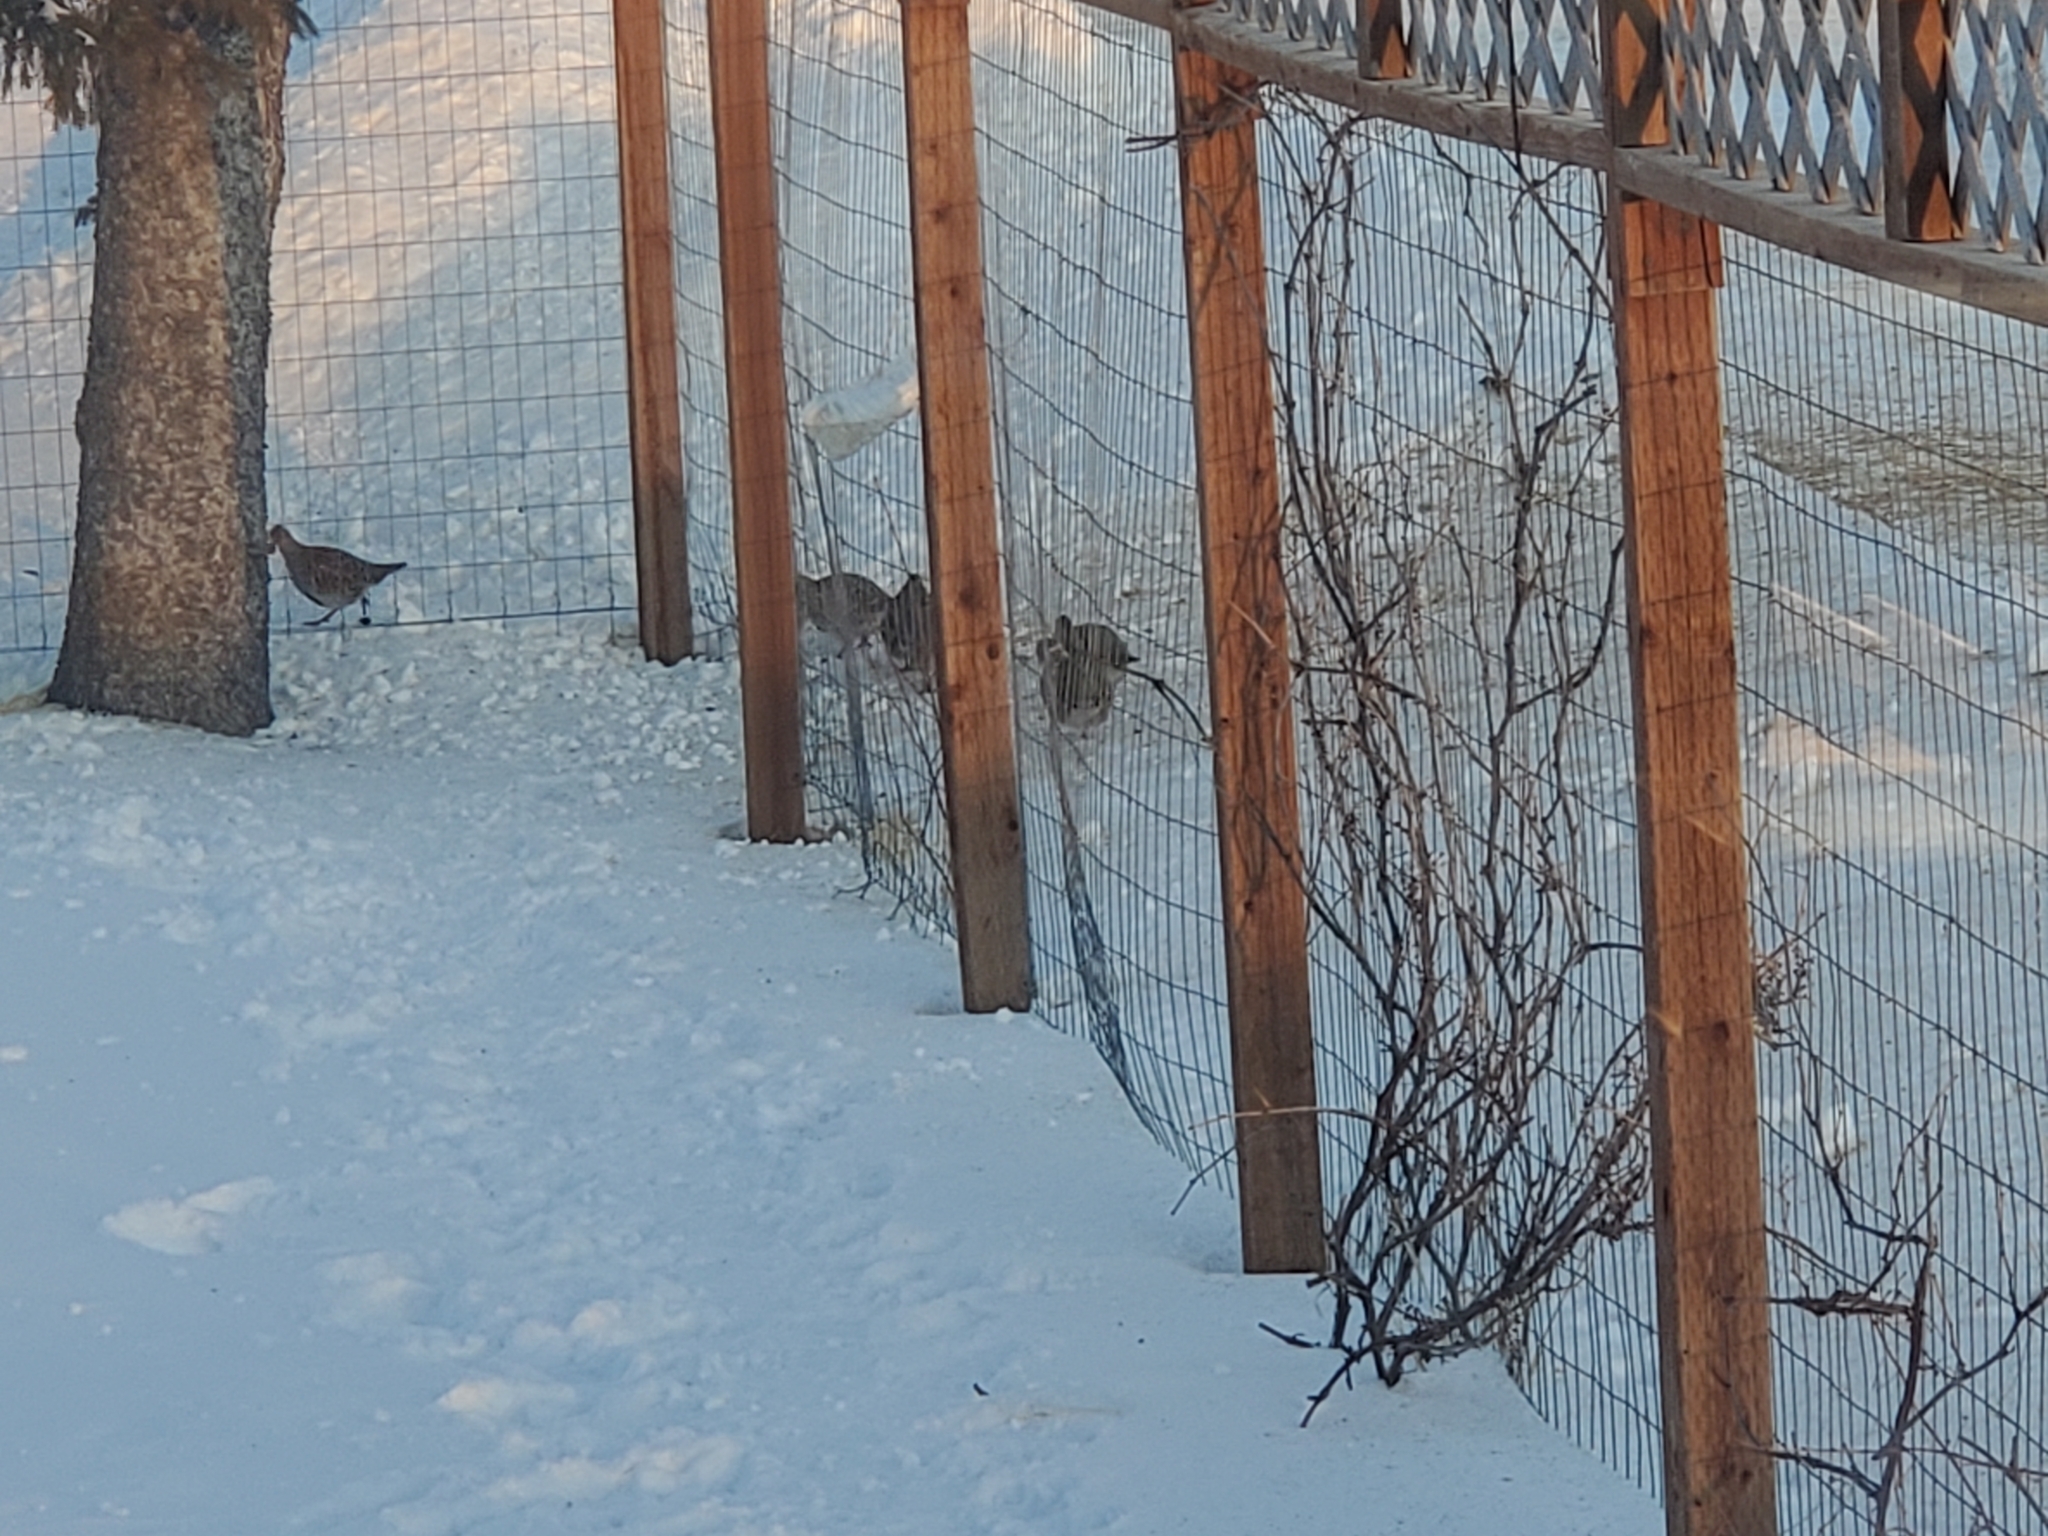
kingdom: Animalia
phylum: Chordata
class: Aves
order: Galliformes
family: Phasianidae
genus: Perdix
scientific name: Perdix perdix
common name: Grey partridge
